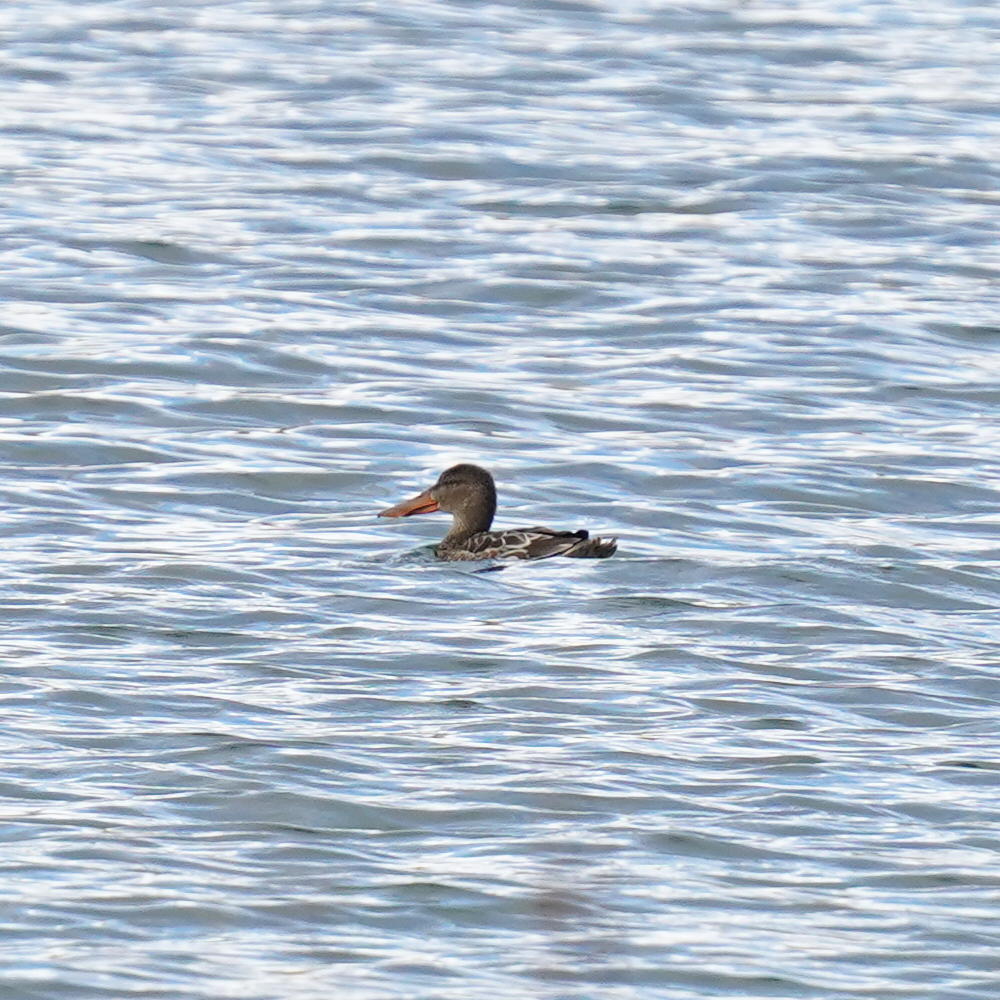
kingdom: Animalia
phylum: Chordata
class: Aves
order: Anseriformes
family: Anatidae
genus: Spatula
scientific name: Spatula clypeata
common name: Northern shoveler
